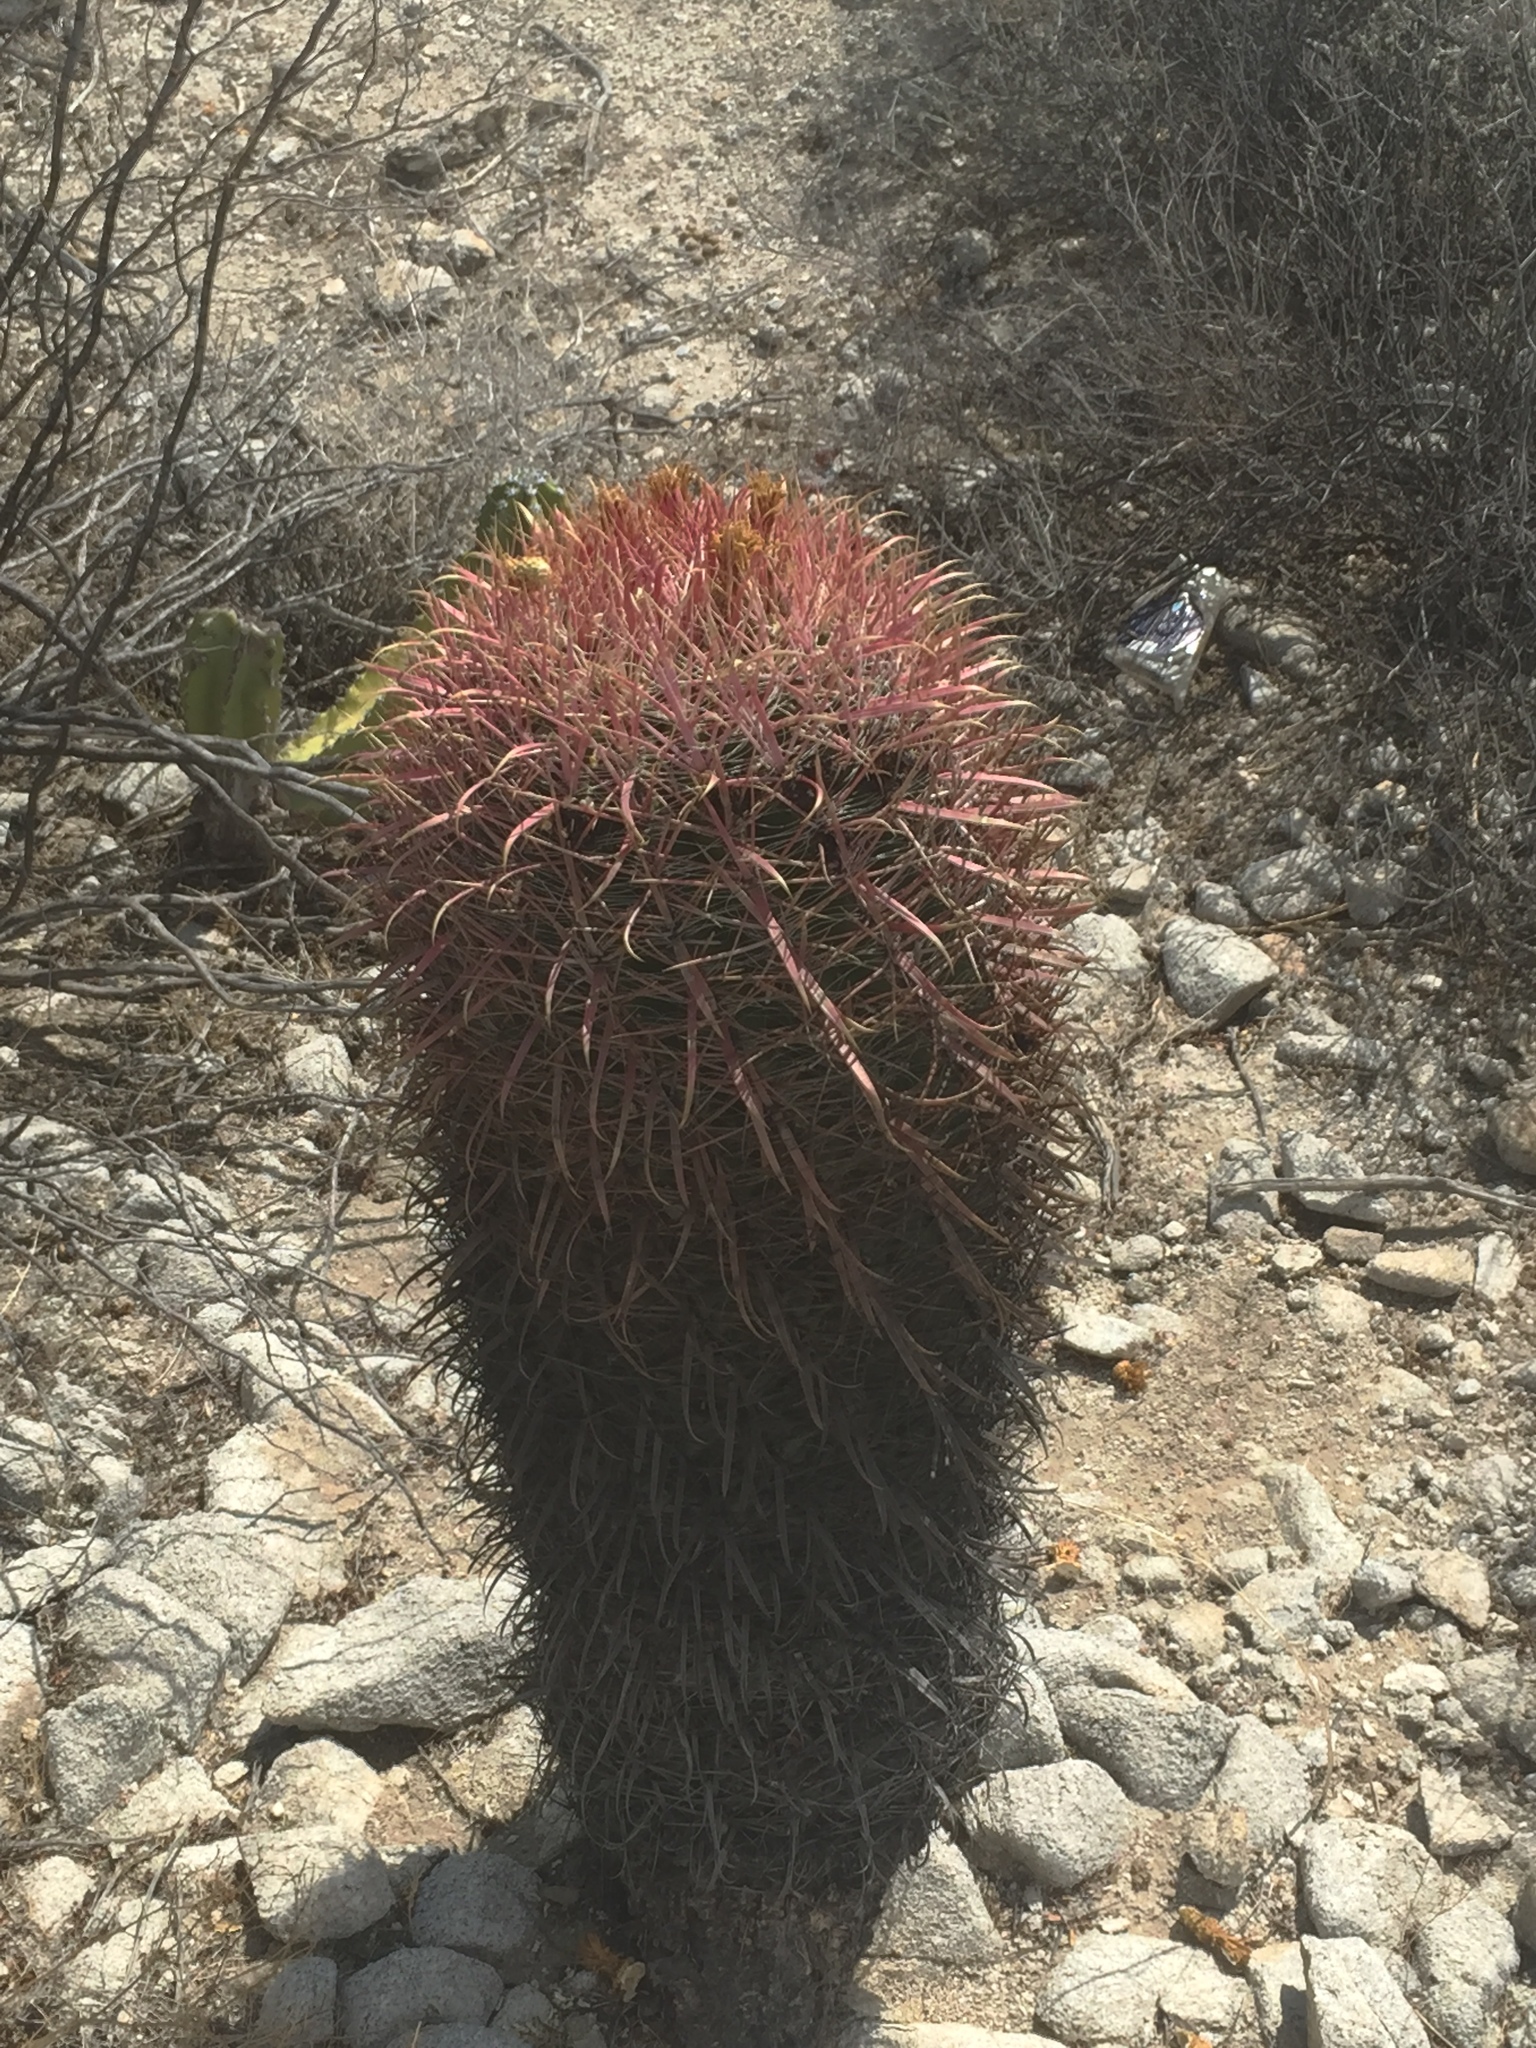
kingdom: Plantae
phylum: Tracheophyta
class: Magnoliopsida
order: Caryophyllales
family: Cactaceae
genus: Ferocactus
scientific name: Ferocactus gracilis
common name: Fire barrel cactus
